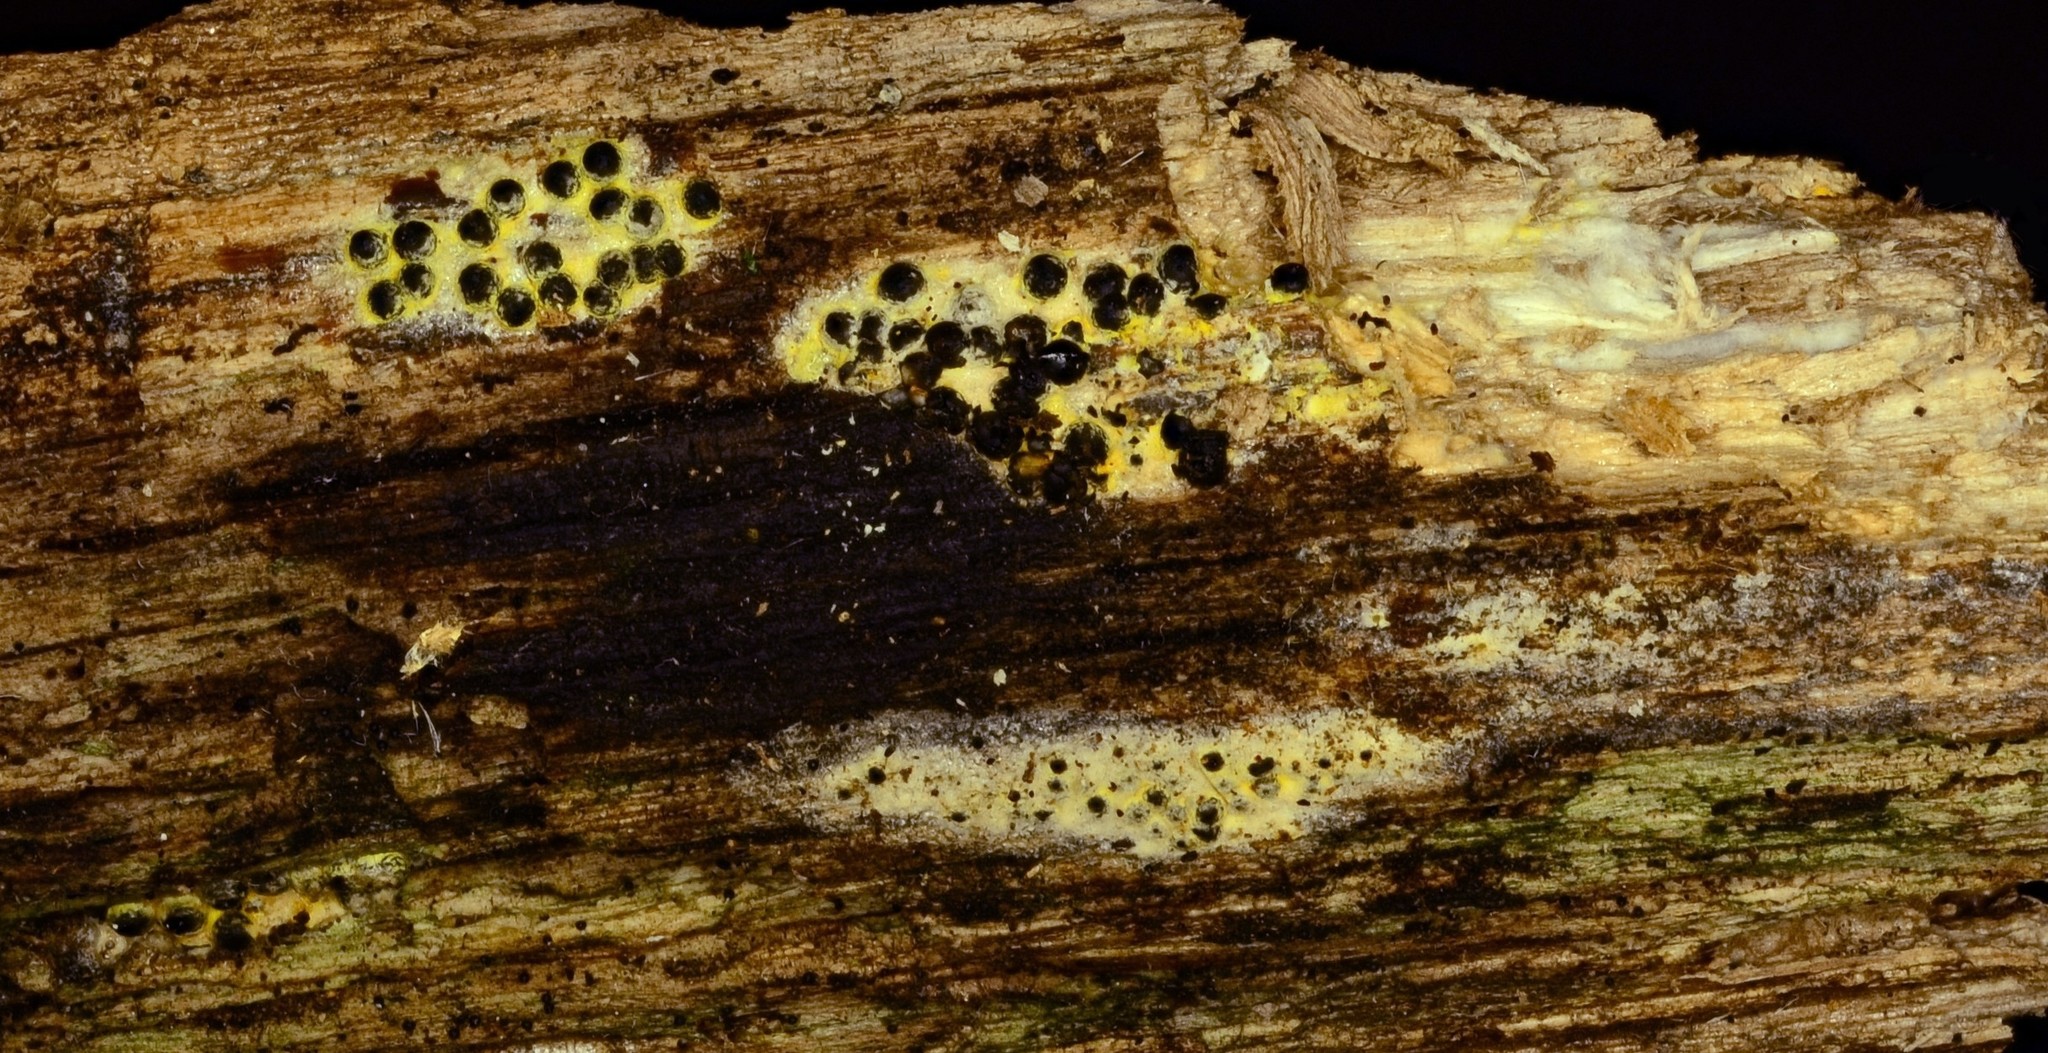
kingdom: Fungi
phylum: Ascomycota
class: Sordariomycetes
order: Xylariales
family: Xylariaceae
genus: Rosellinia
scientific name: Rosellinia subiculata
